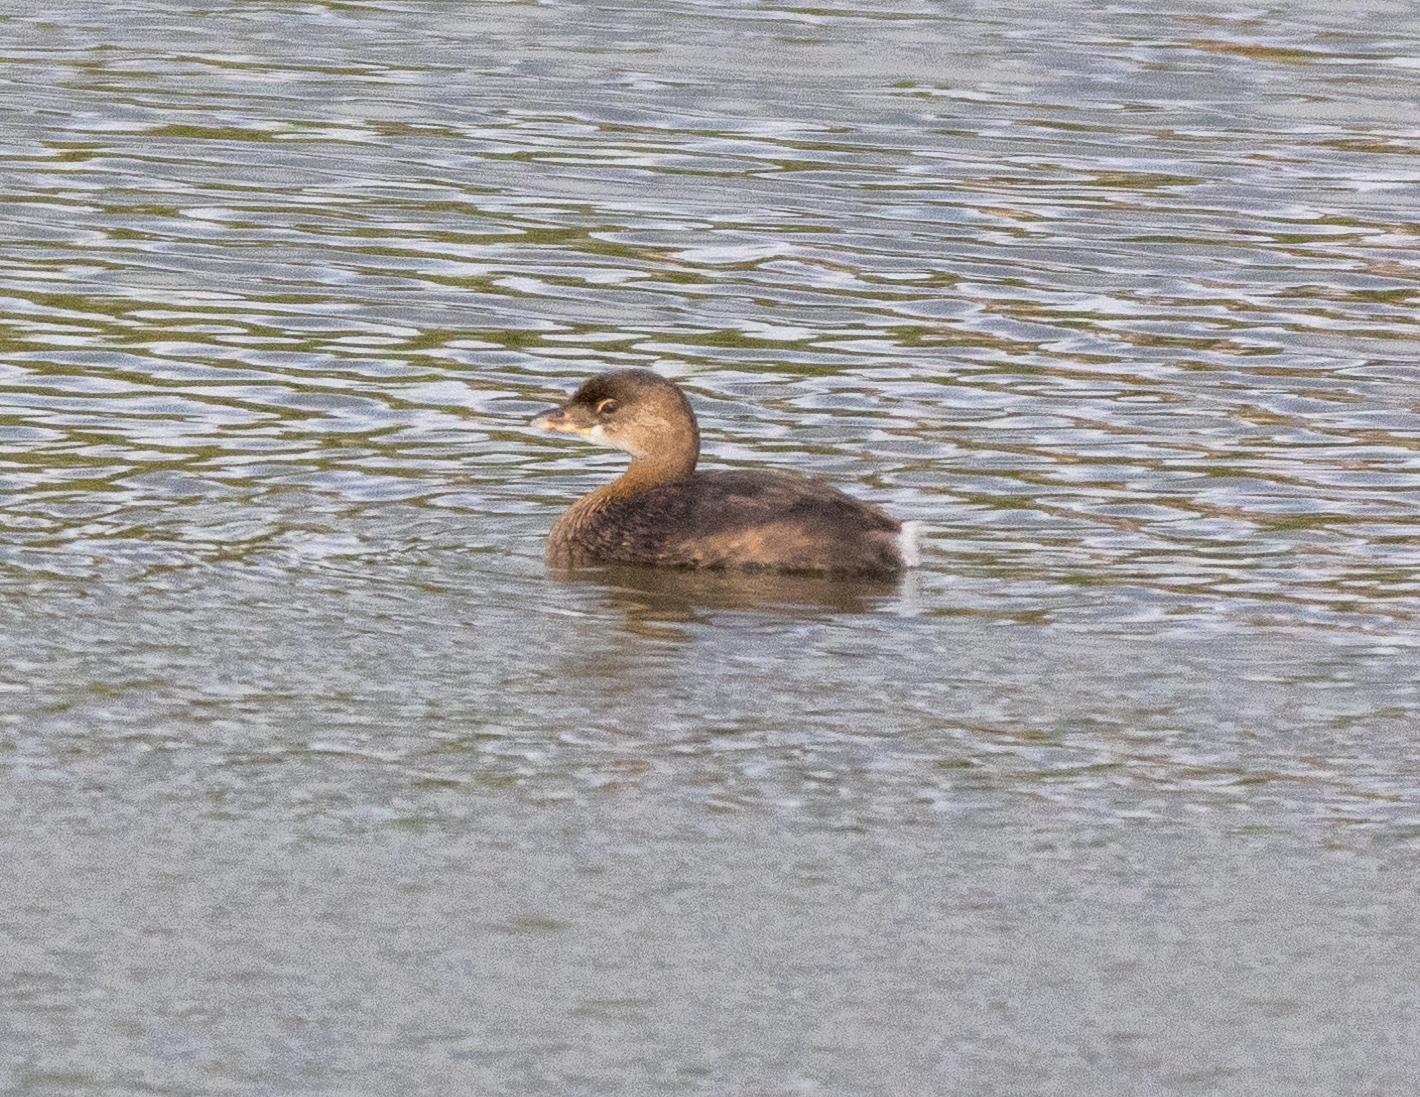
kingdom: Animalia
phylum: Chordata
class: Aves
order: Podicipediformes
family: Podicipedidae
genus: Podilymbus
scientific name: Podilymbus podiceps
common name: Pied-billed grebe
